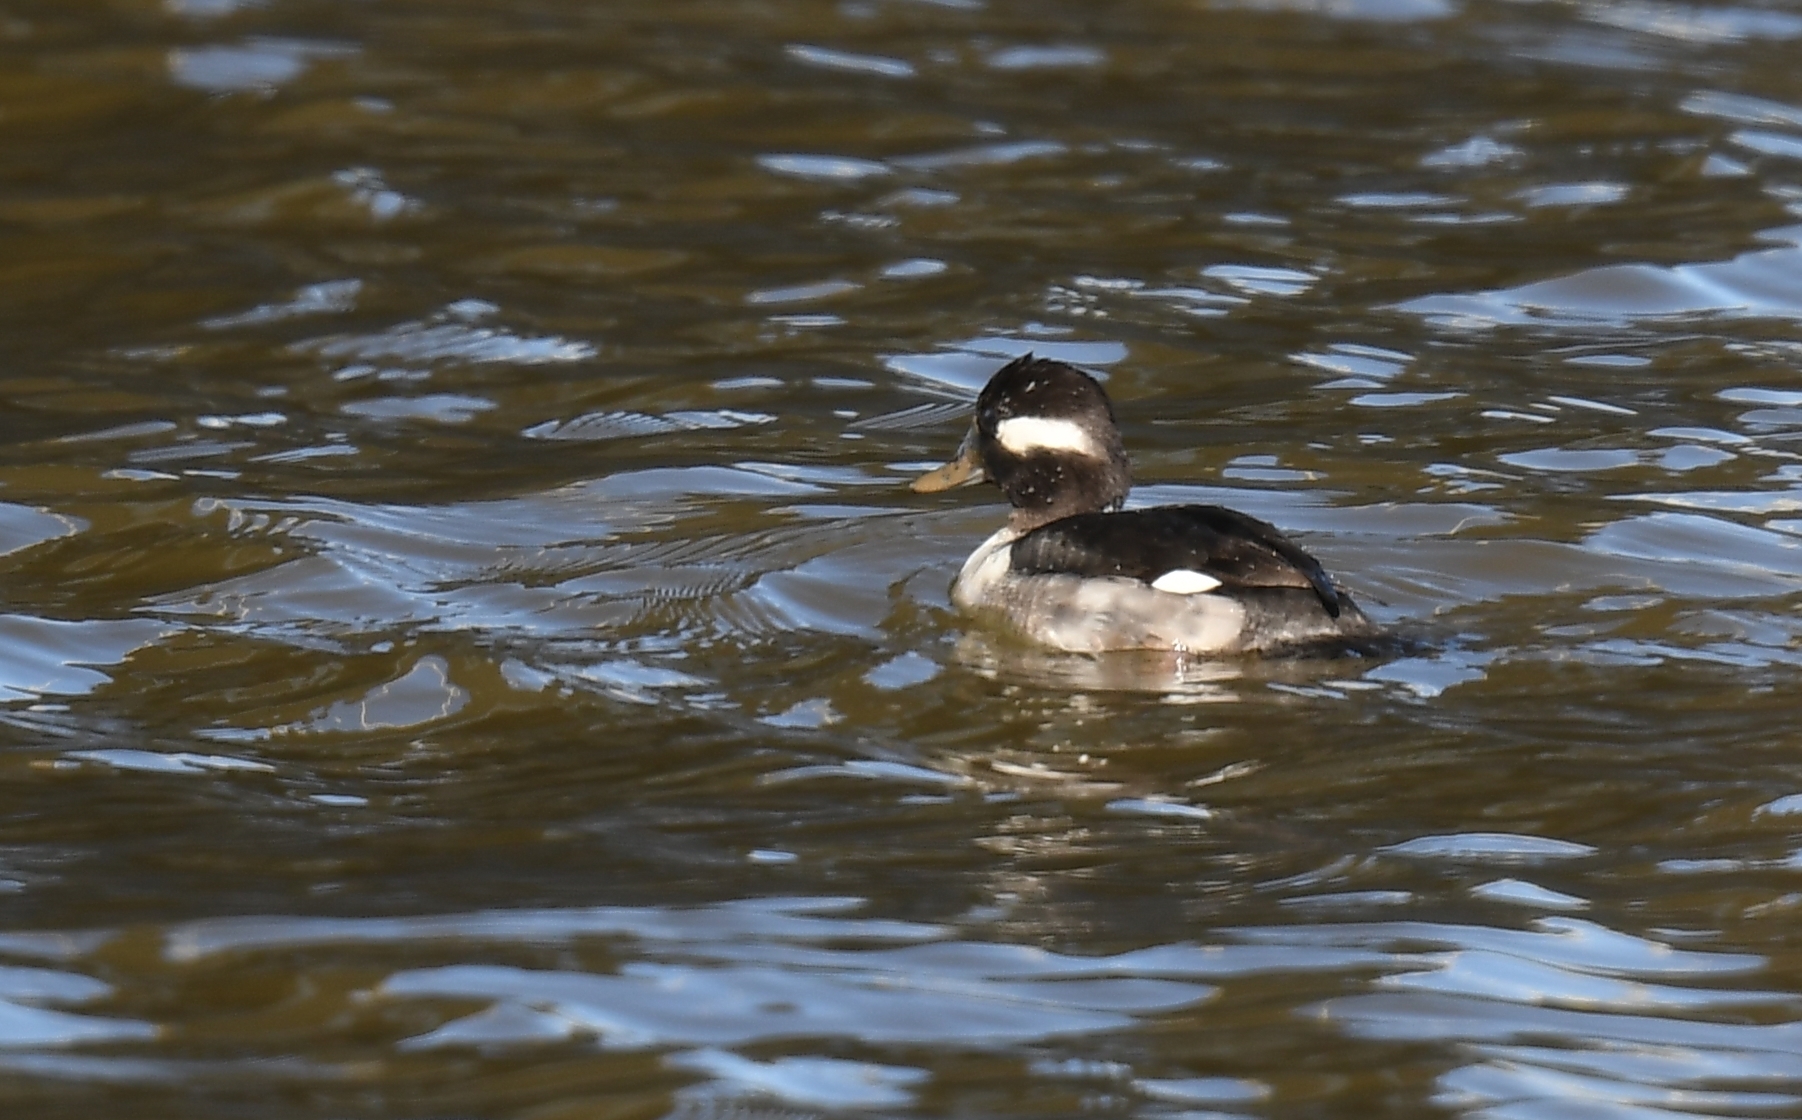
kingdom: Animalia
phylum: Chordata
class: Aves
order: Anseriformes
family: Anatidae
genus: Bucephala
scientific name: Bucephala albeola
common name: Bufflehead
